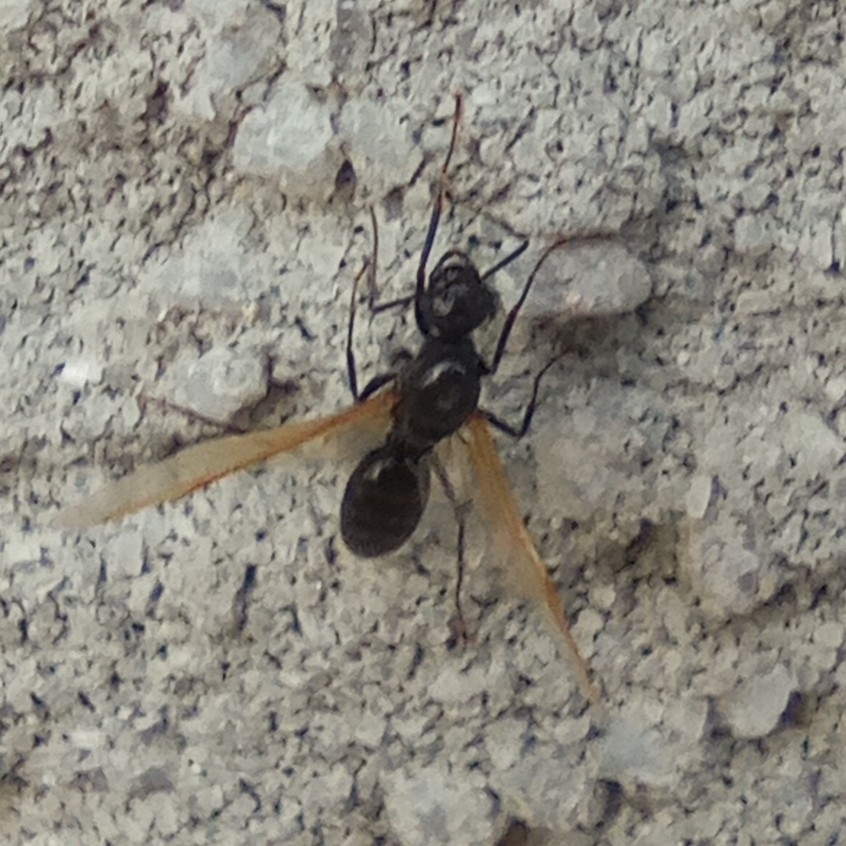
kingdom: Animalia
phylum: Arthropoda
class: Insecta
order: Hymenoptera
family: Formicidae
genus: Camponotus
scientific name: Camponotus vagus
